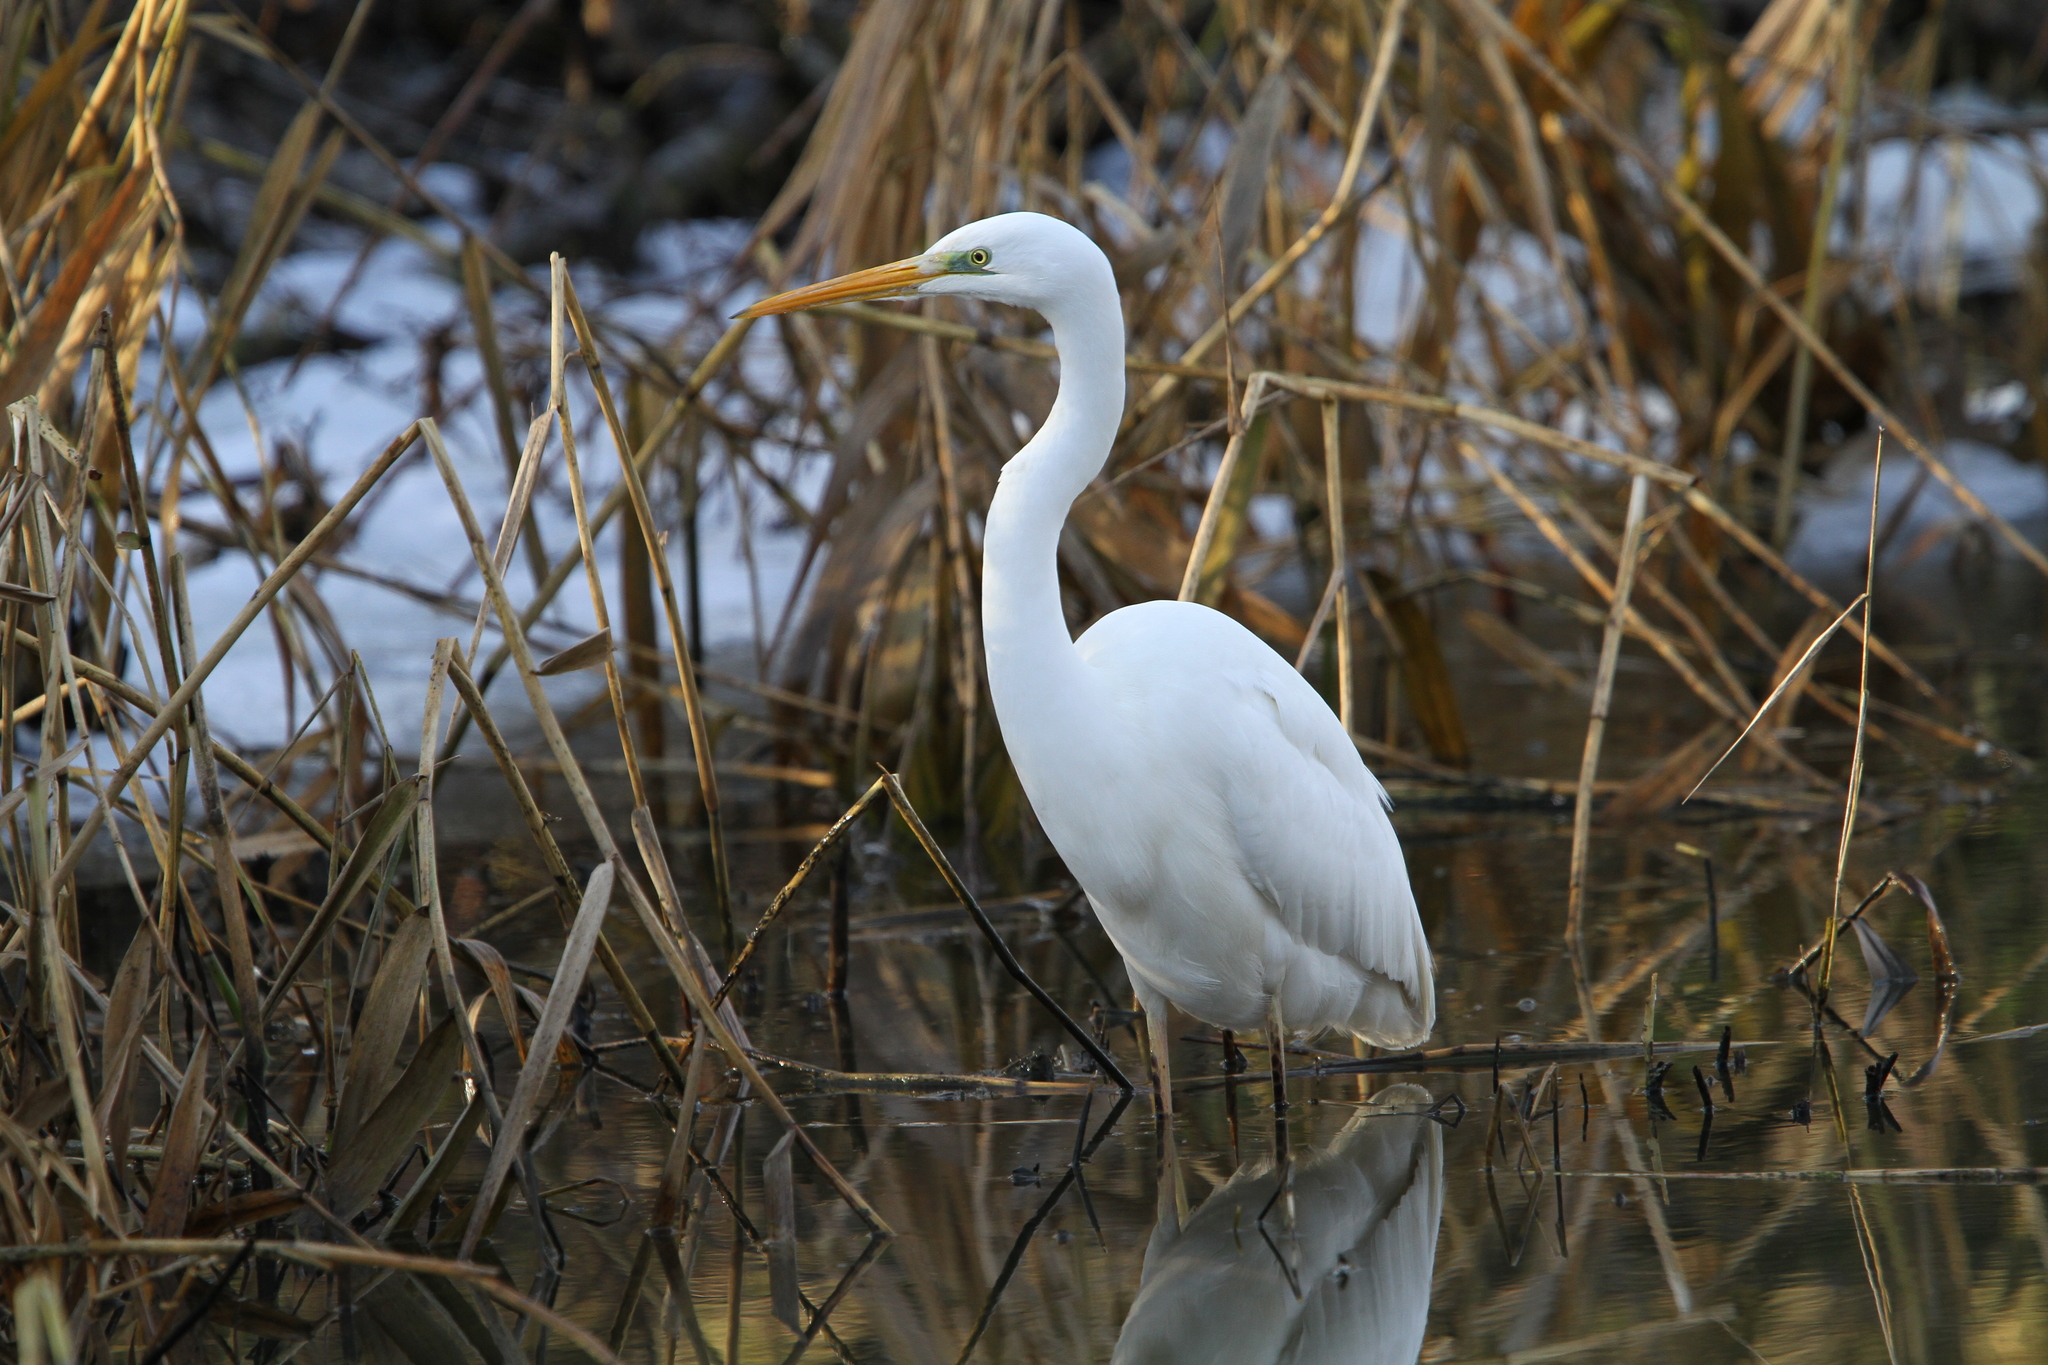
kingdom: Animalia
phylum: Chordata
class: Aves
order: Pelecaniformes
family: Ardeidae
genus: Ardea
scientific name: Ardea alba
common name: Great egret
